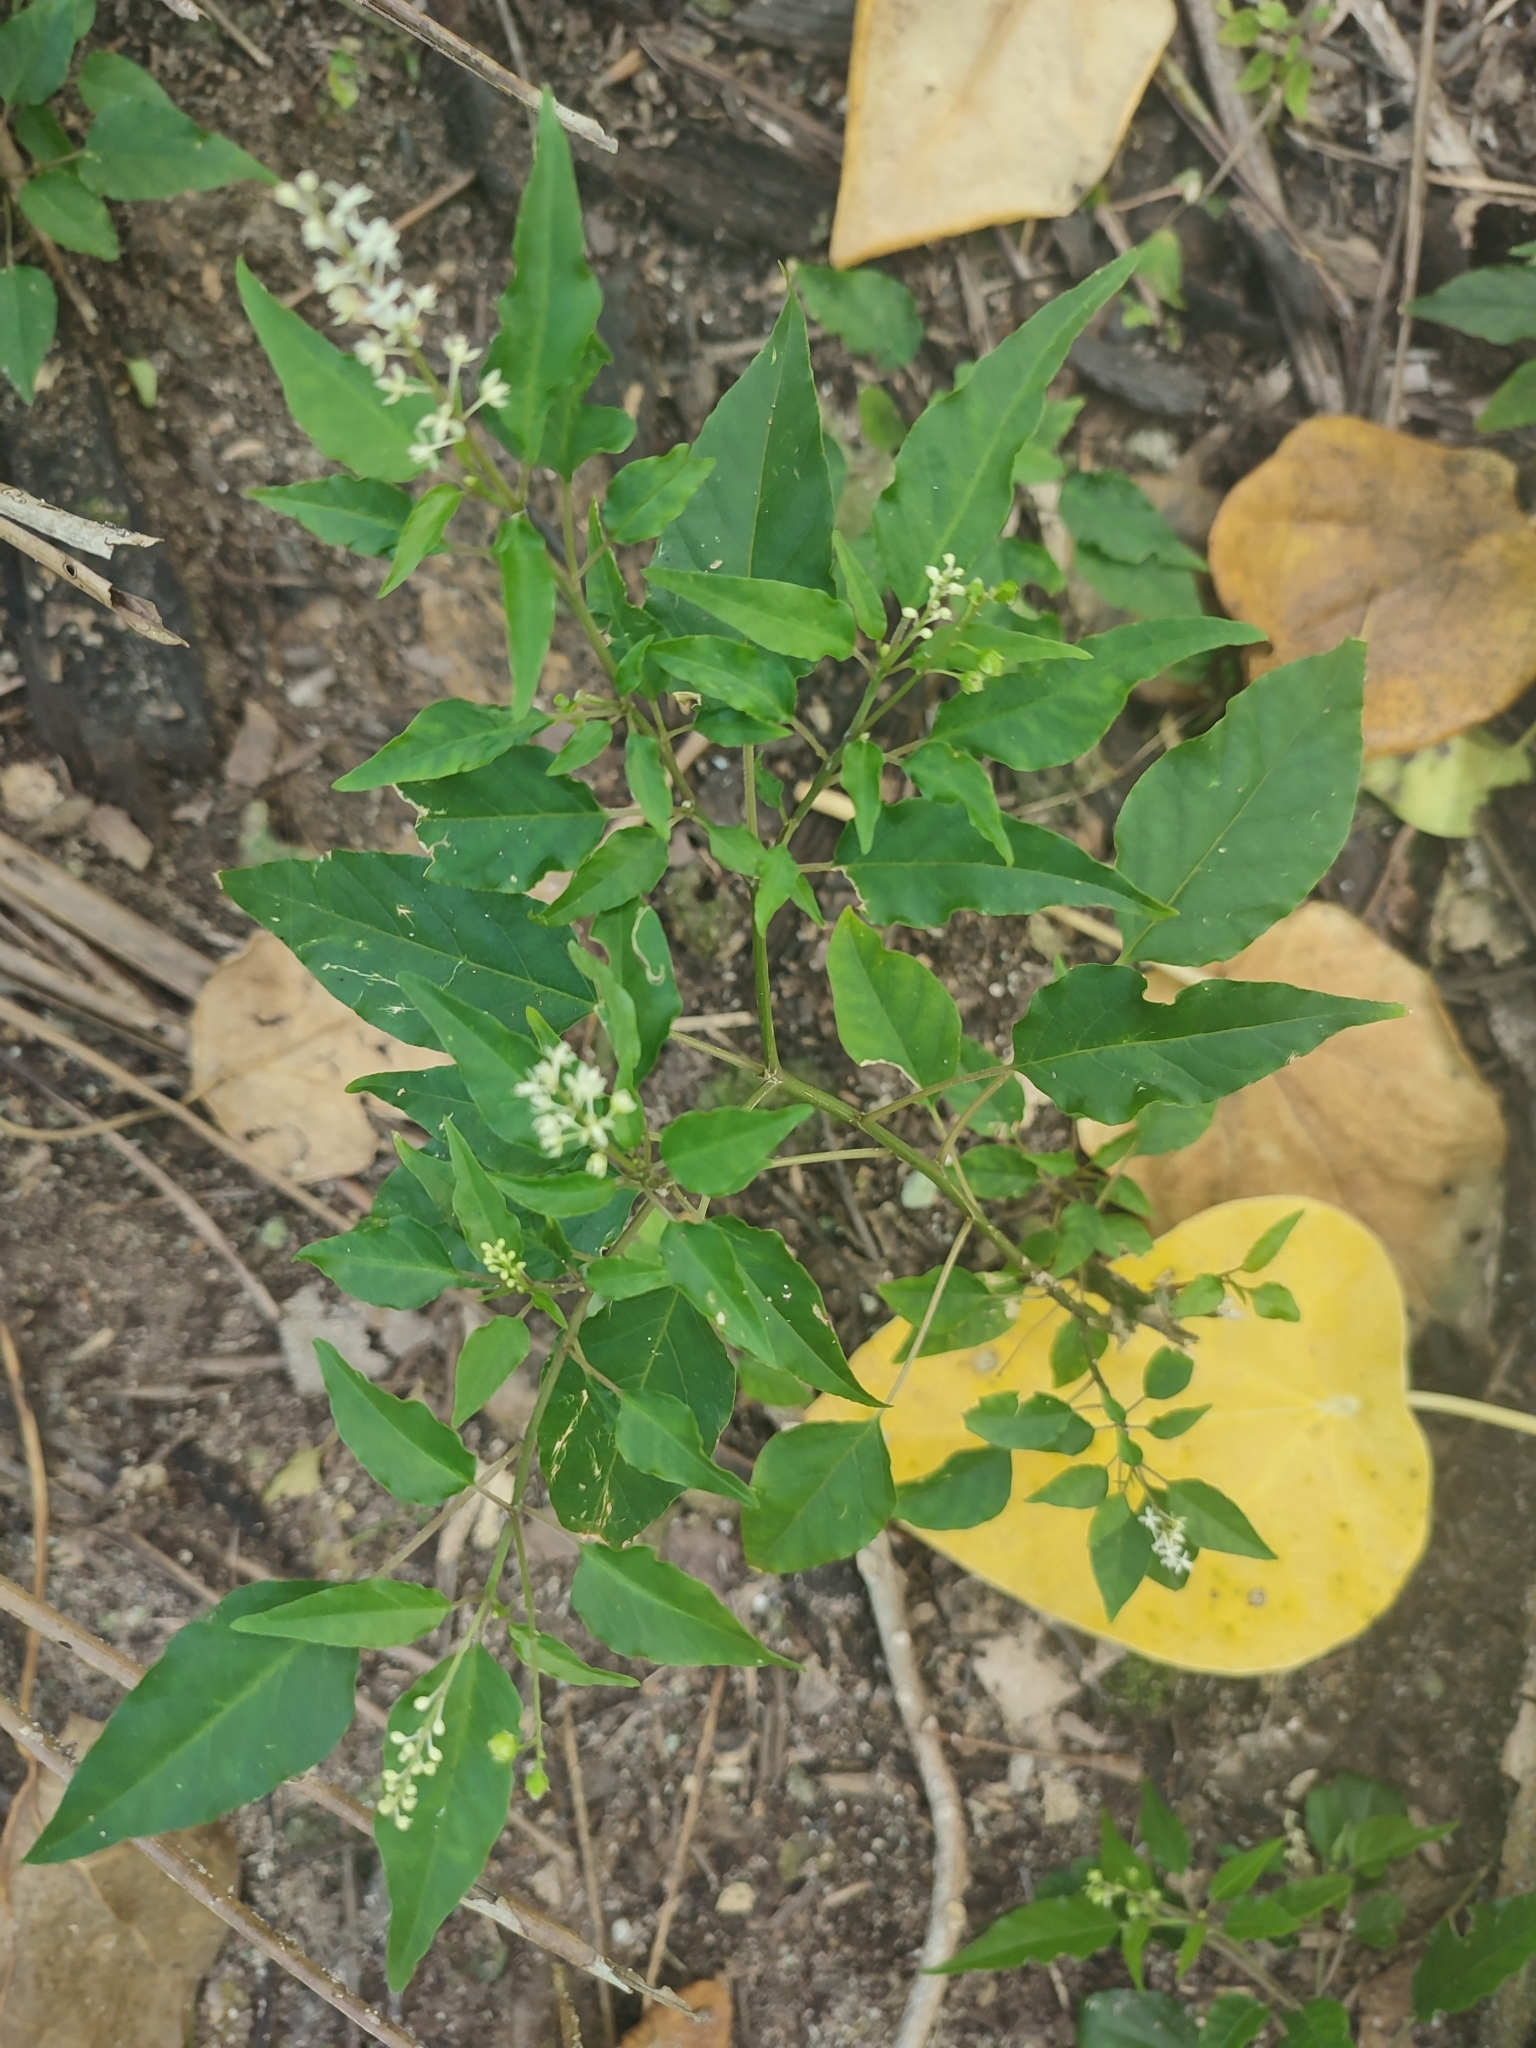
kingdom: Plantae
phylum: Tracheophyta
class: Magnoliopsida
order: Caryophyllales
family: Phytolaccaceae
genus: Rivina
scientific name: Rivina humilis
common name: Rougeplant
